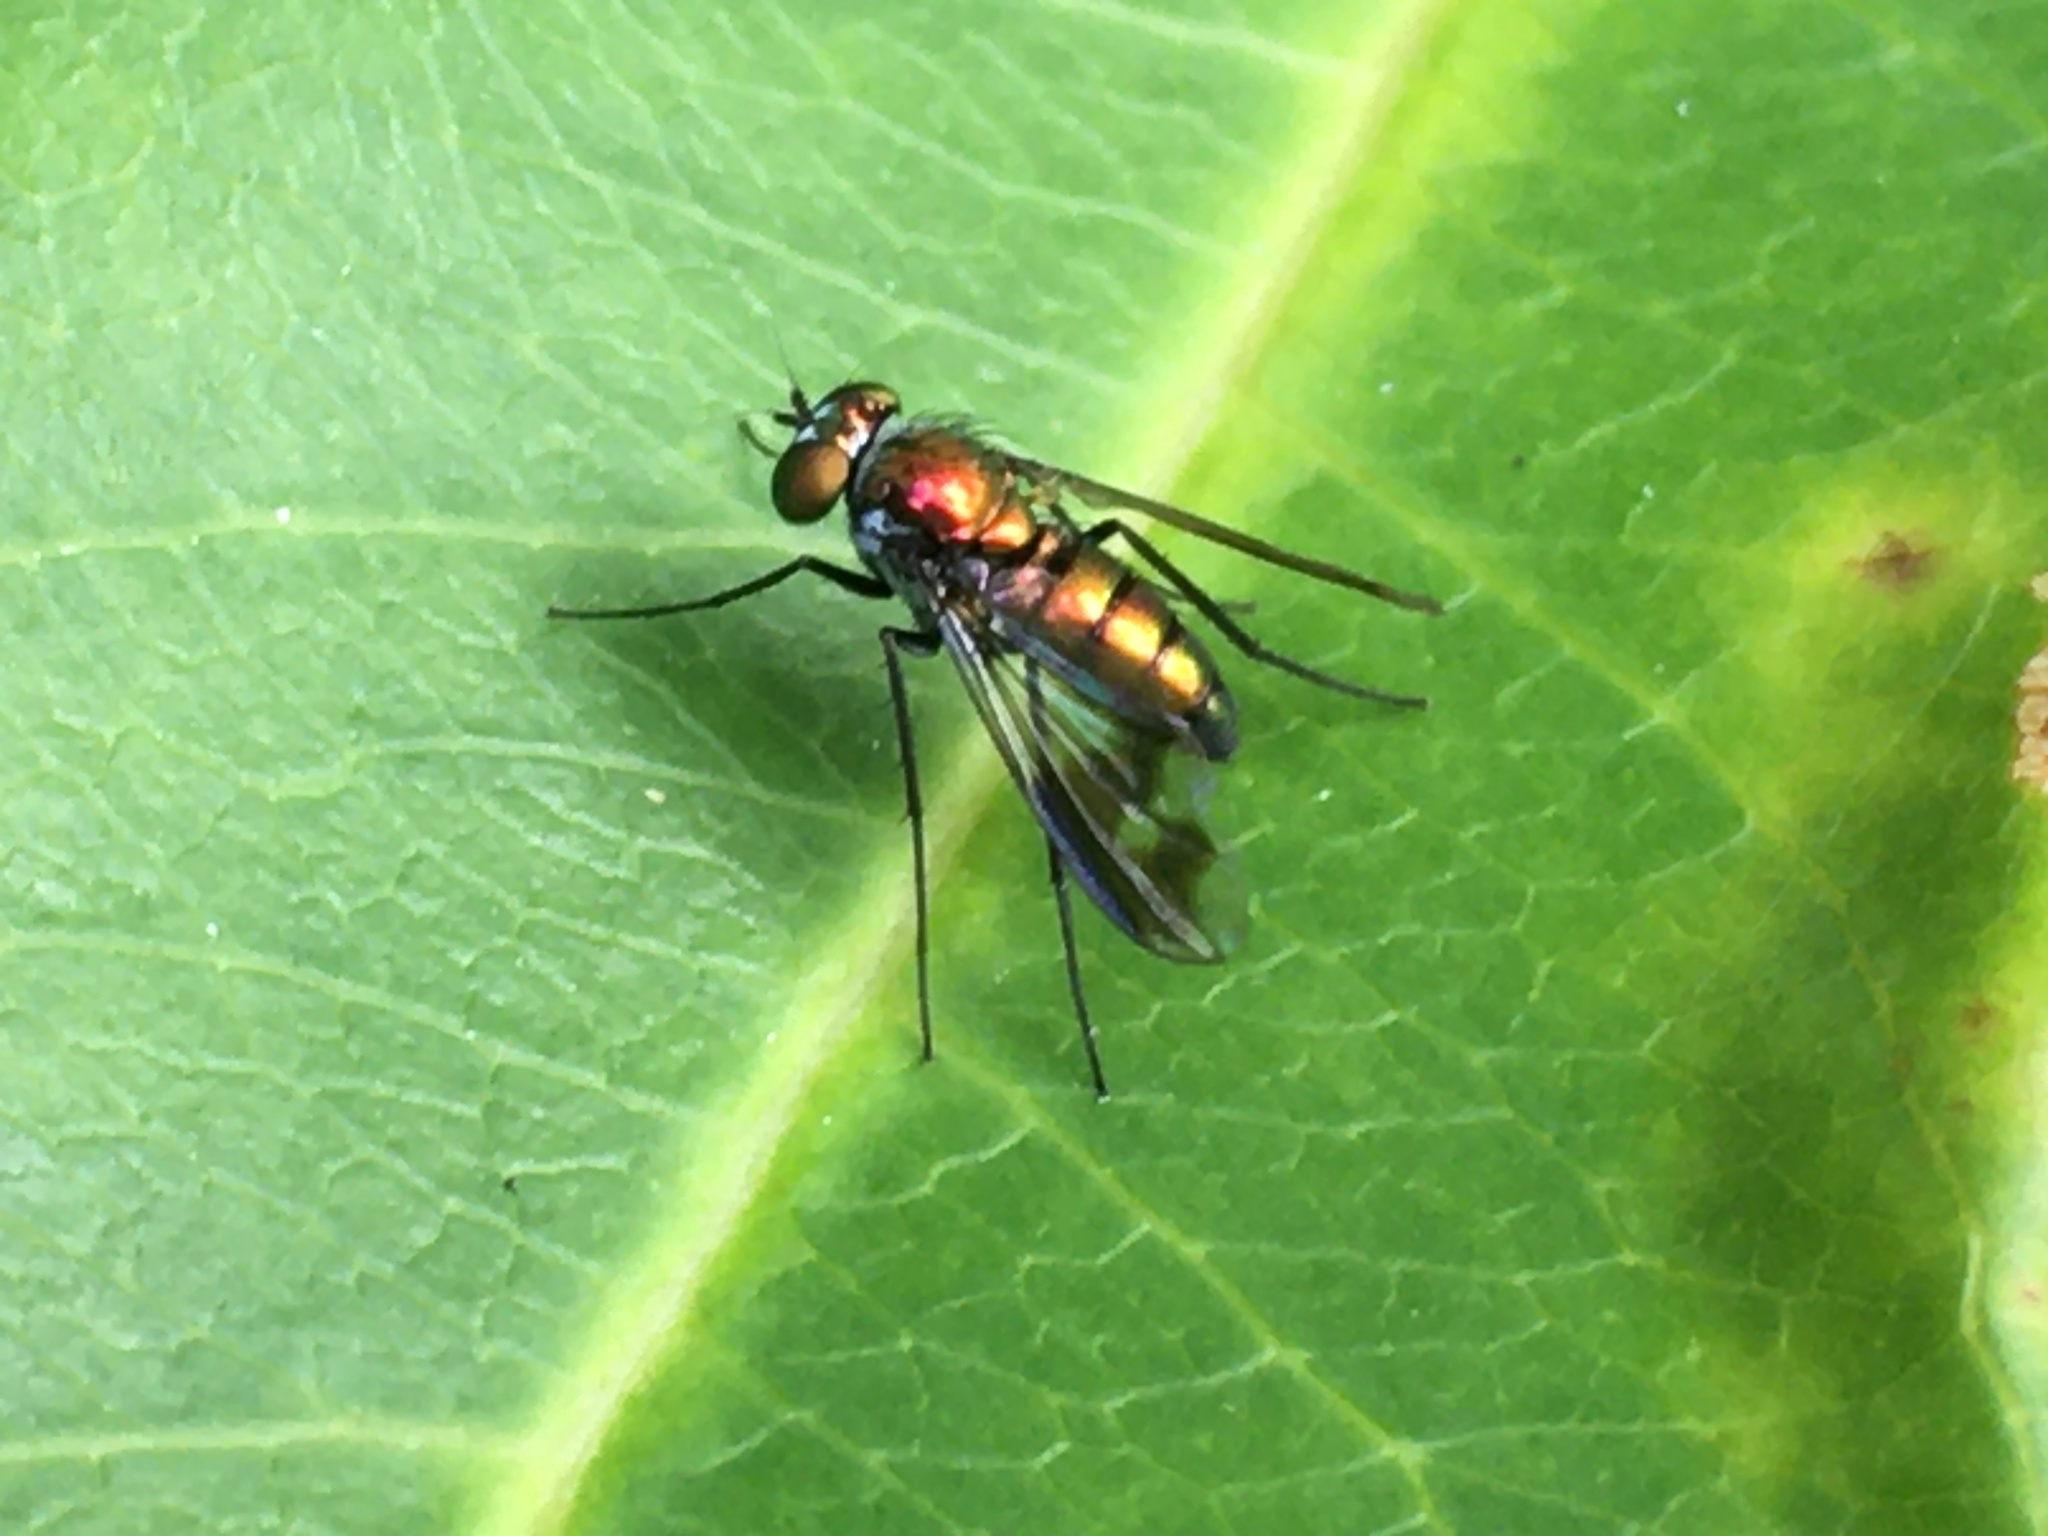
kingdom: Animalia
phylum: Arthropoda
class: Insecta
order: Diptera
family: Dolichopodidae
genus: Condylostylus
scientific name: Condylostylus patibulatus
